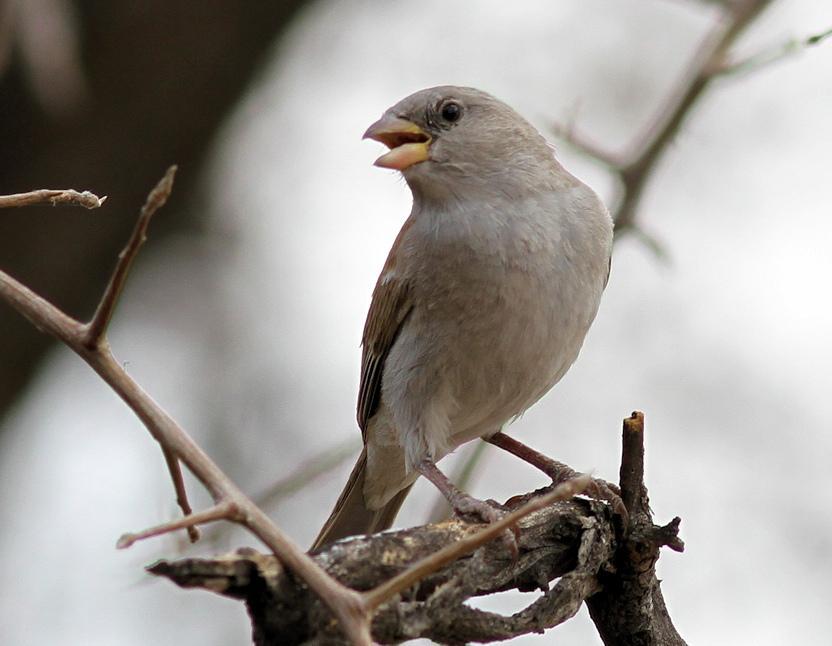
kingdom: Animalia
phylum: Chordata
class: Aves
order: Passeriformes
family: Passeridae
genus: Passer
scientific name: Passer diffusus
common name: Southern grey-headed sparrow
